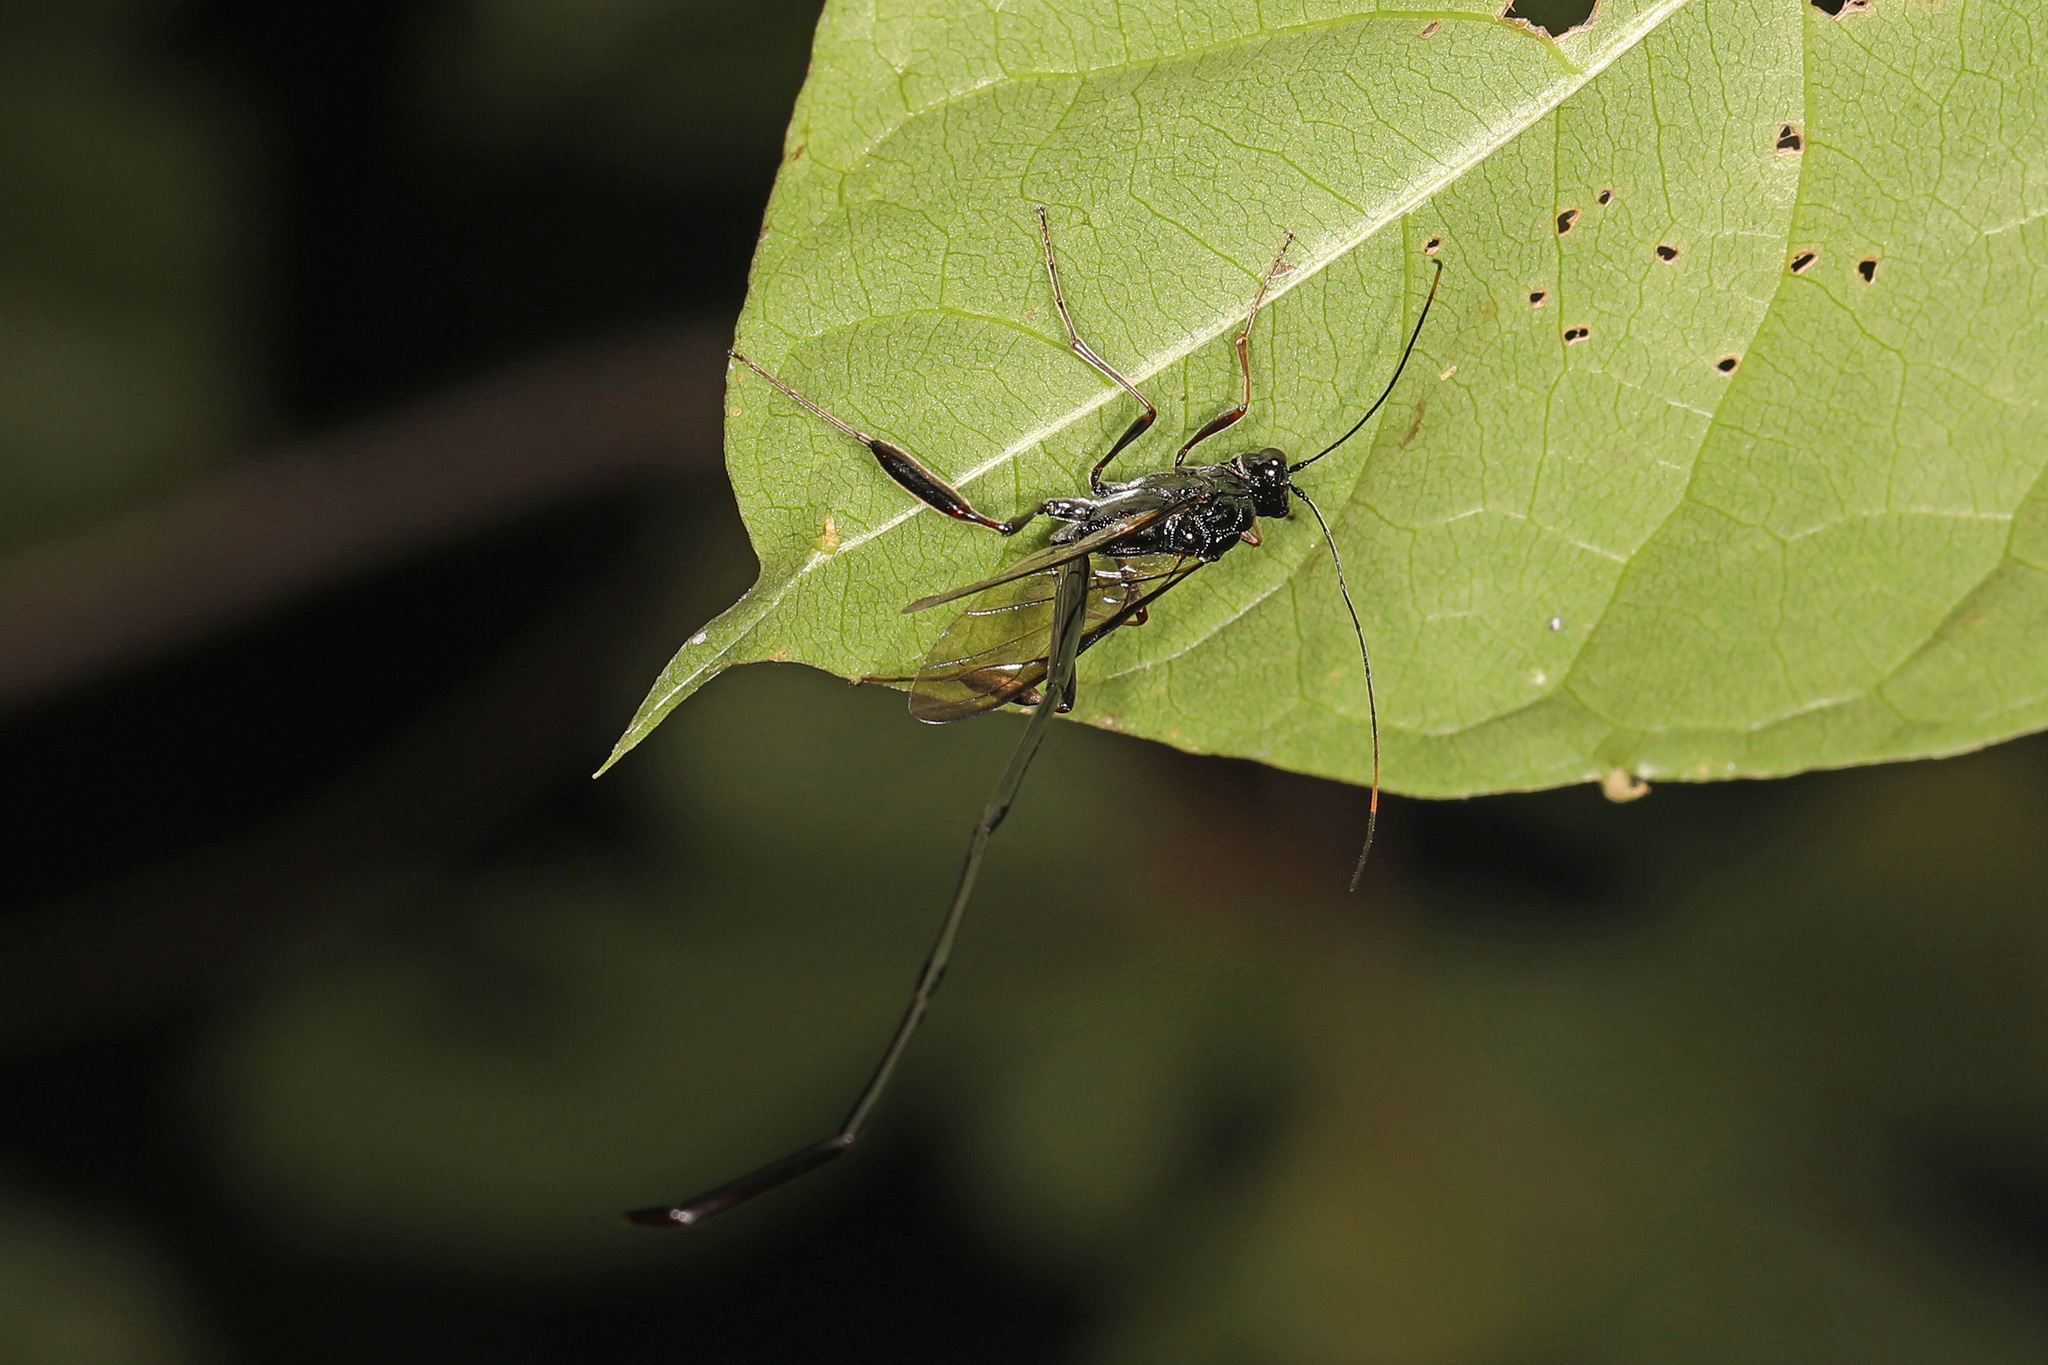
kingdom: Animalia
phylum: Arthropoda
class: Insecta
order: Hymenoptera
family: Pelecinidae
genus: Pelecinus
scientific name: Pelecinus polyturator
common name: American pelecinid wasp
